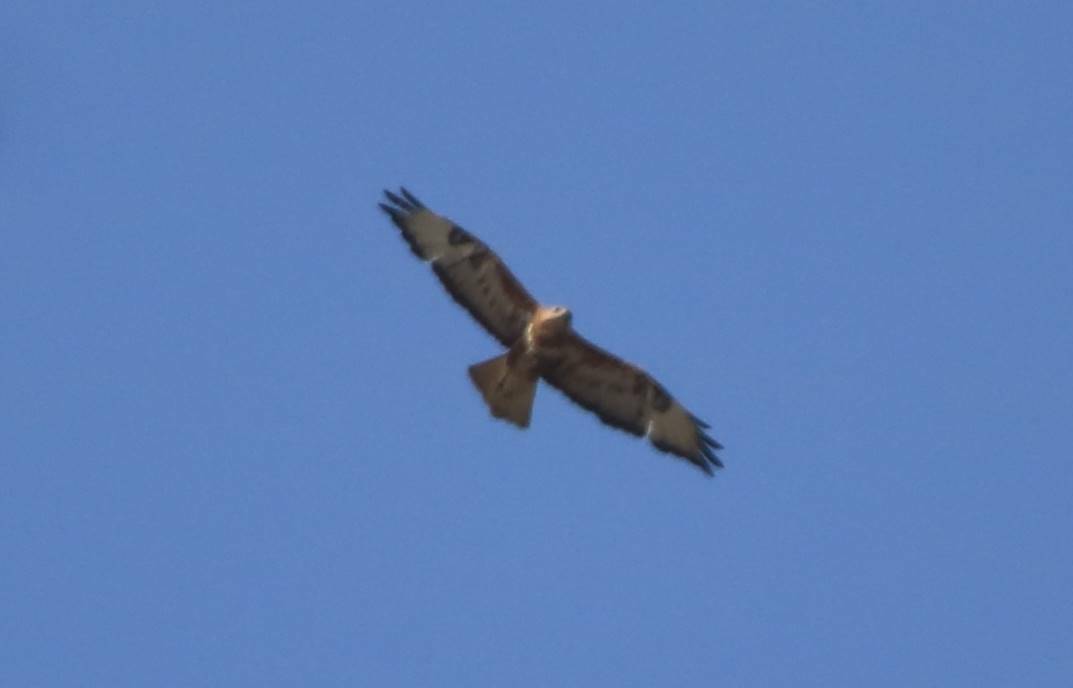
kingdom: Animalia
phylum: Chordata
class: Aves
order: Accipitriformes
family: Accipitridae
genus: Buteo
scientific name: Buteo rufinus
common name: Long-legged buzzard
